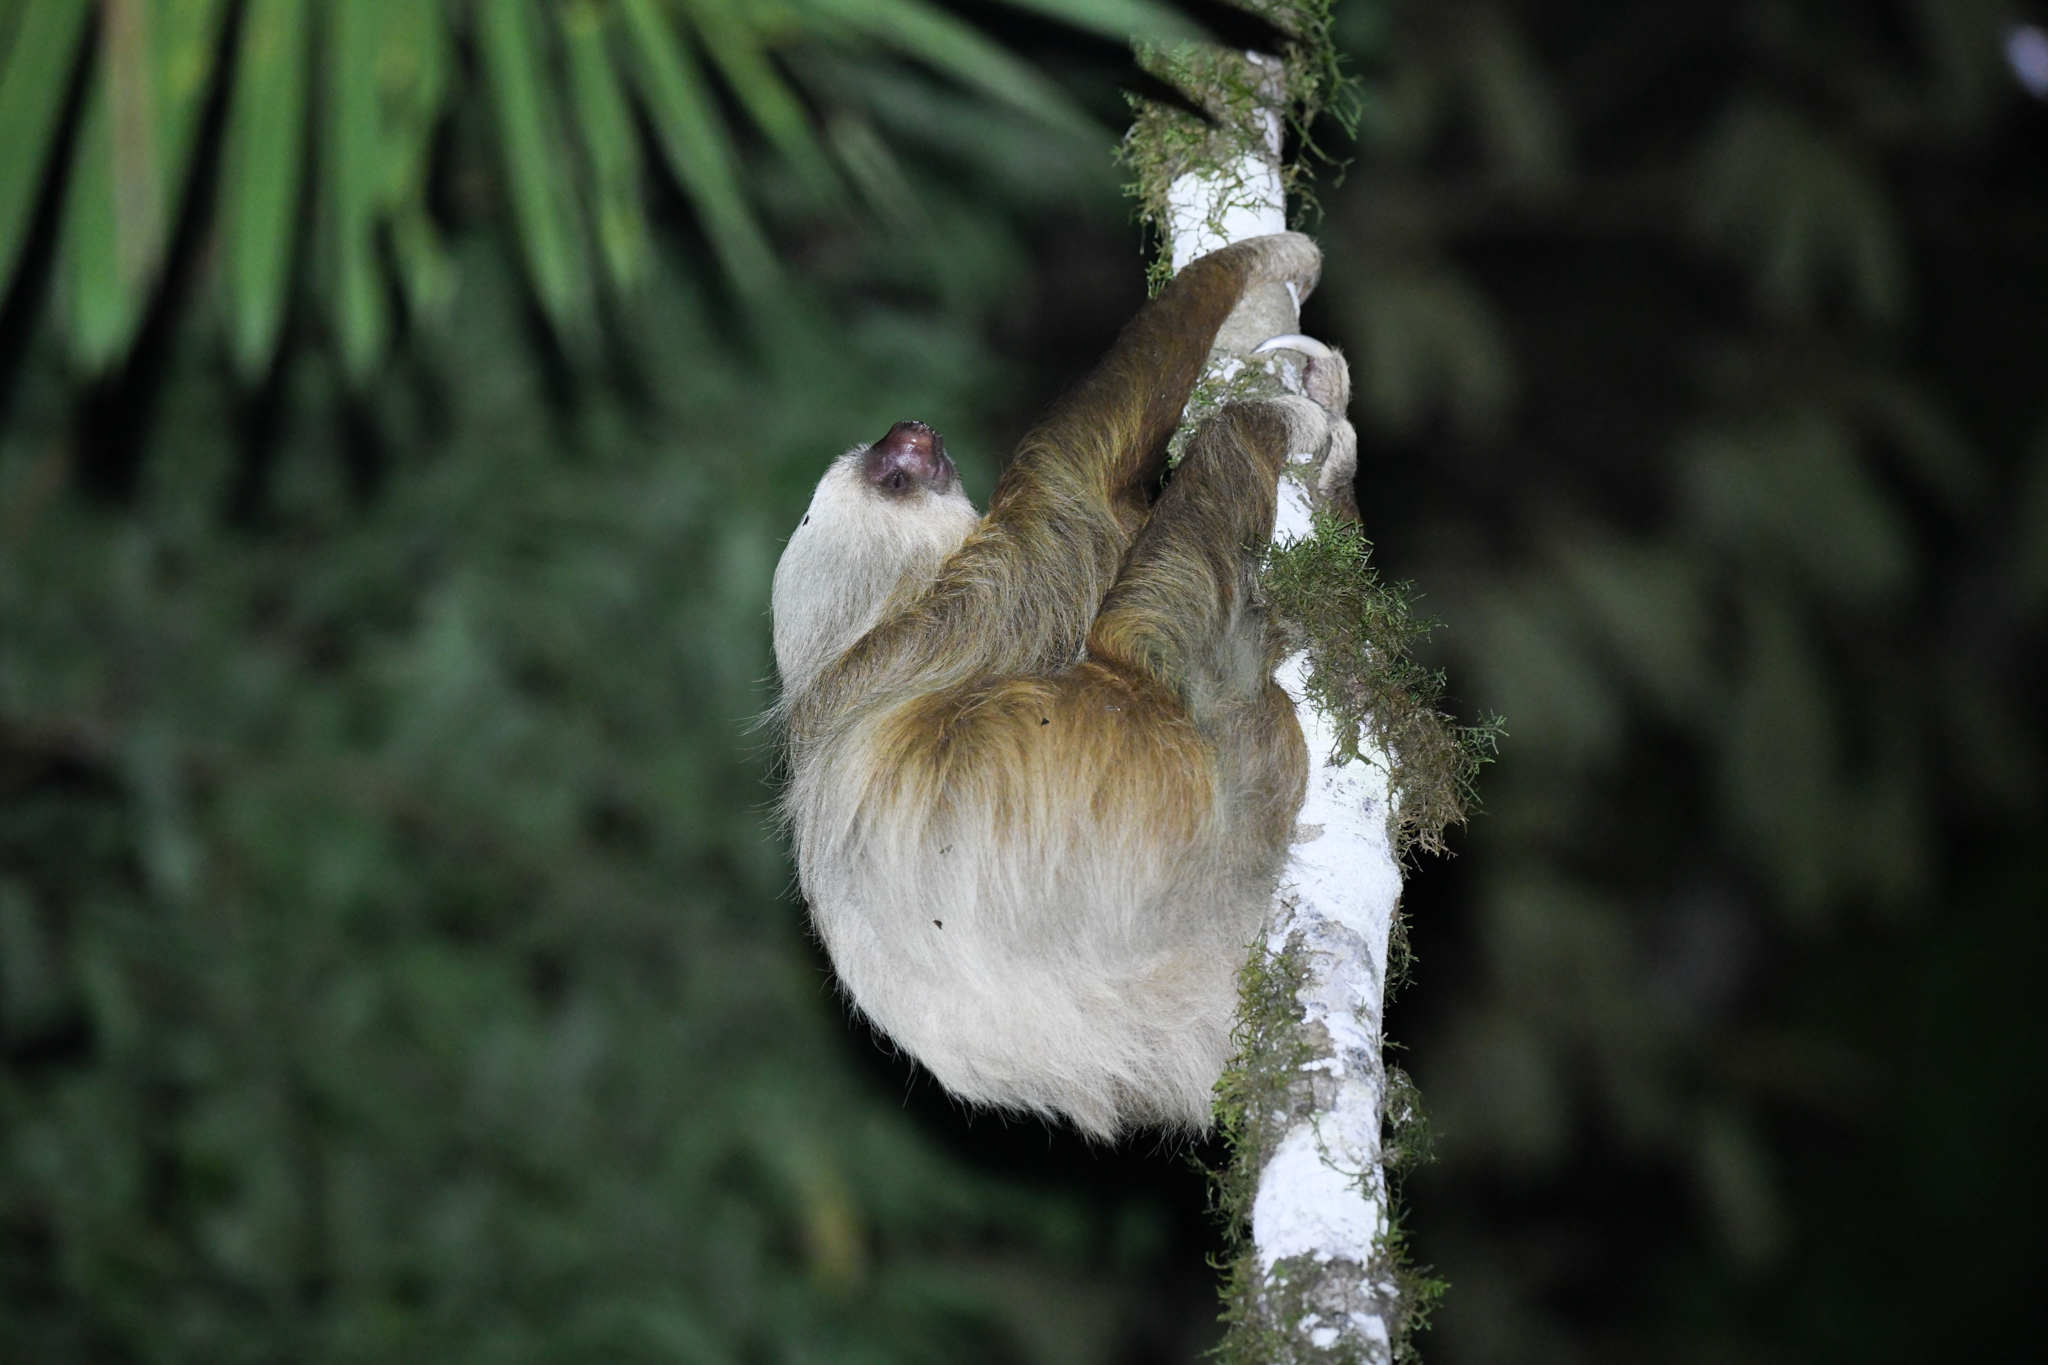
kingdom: Animalia
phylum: Chordata
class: Mammalia
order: Pilosa
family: Megalonychidae
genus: Choloepus
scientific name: Choloepus hoffmanni
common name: Hoffmann's two-toed sloth
